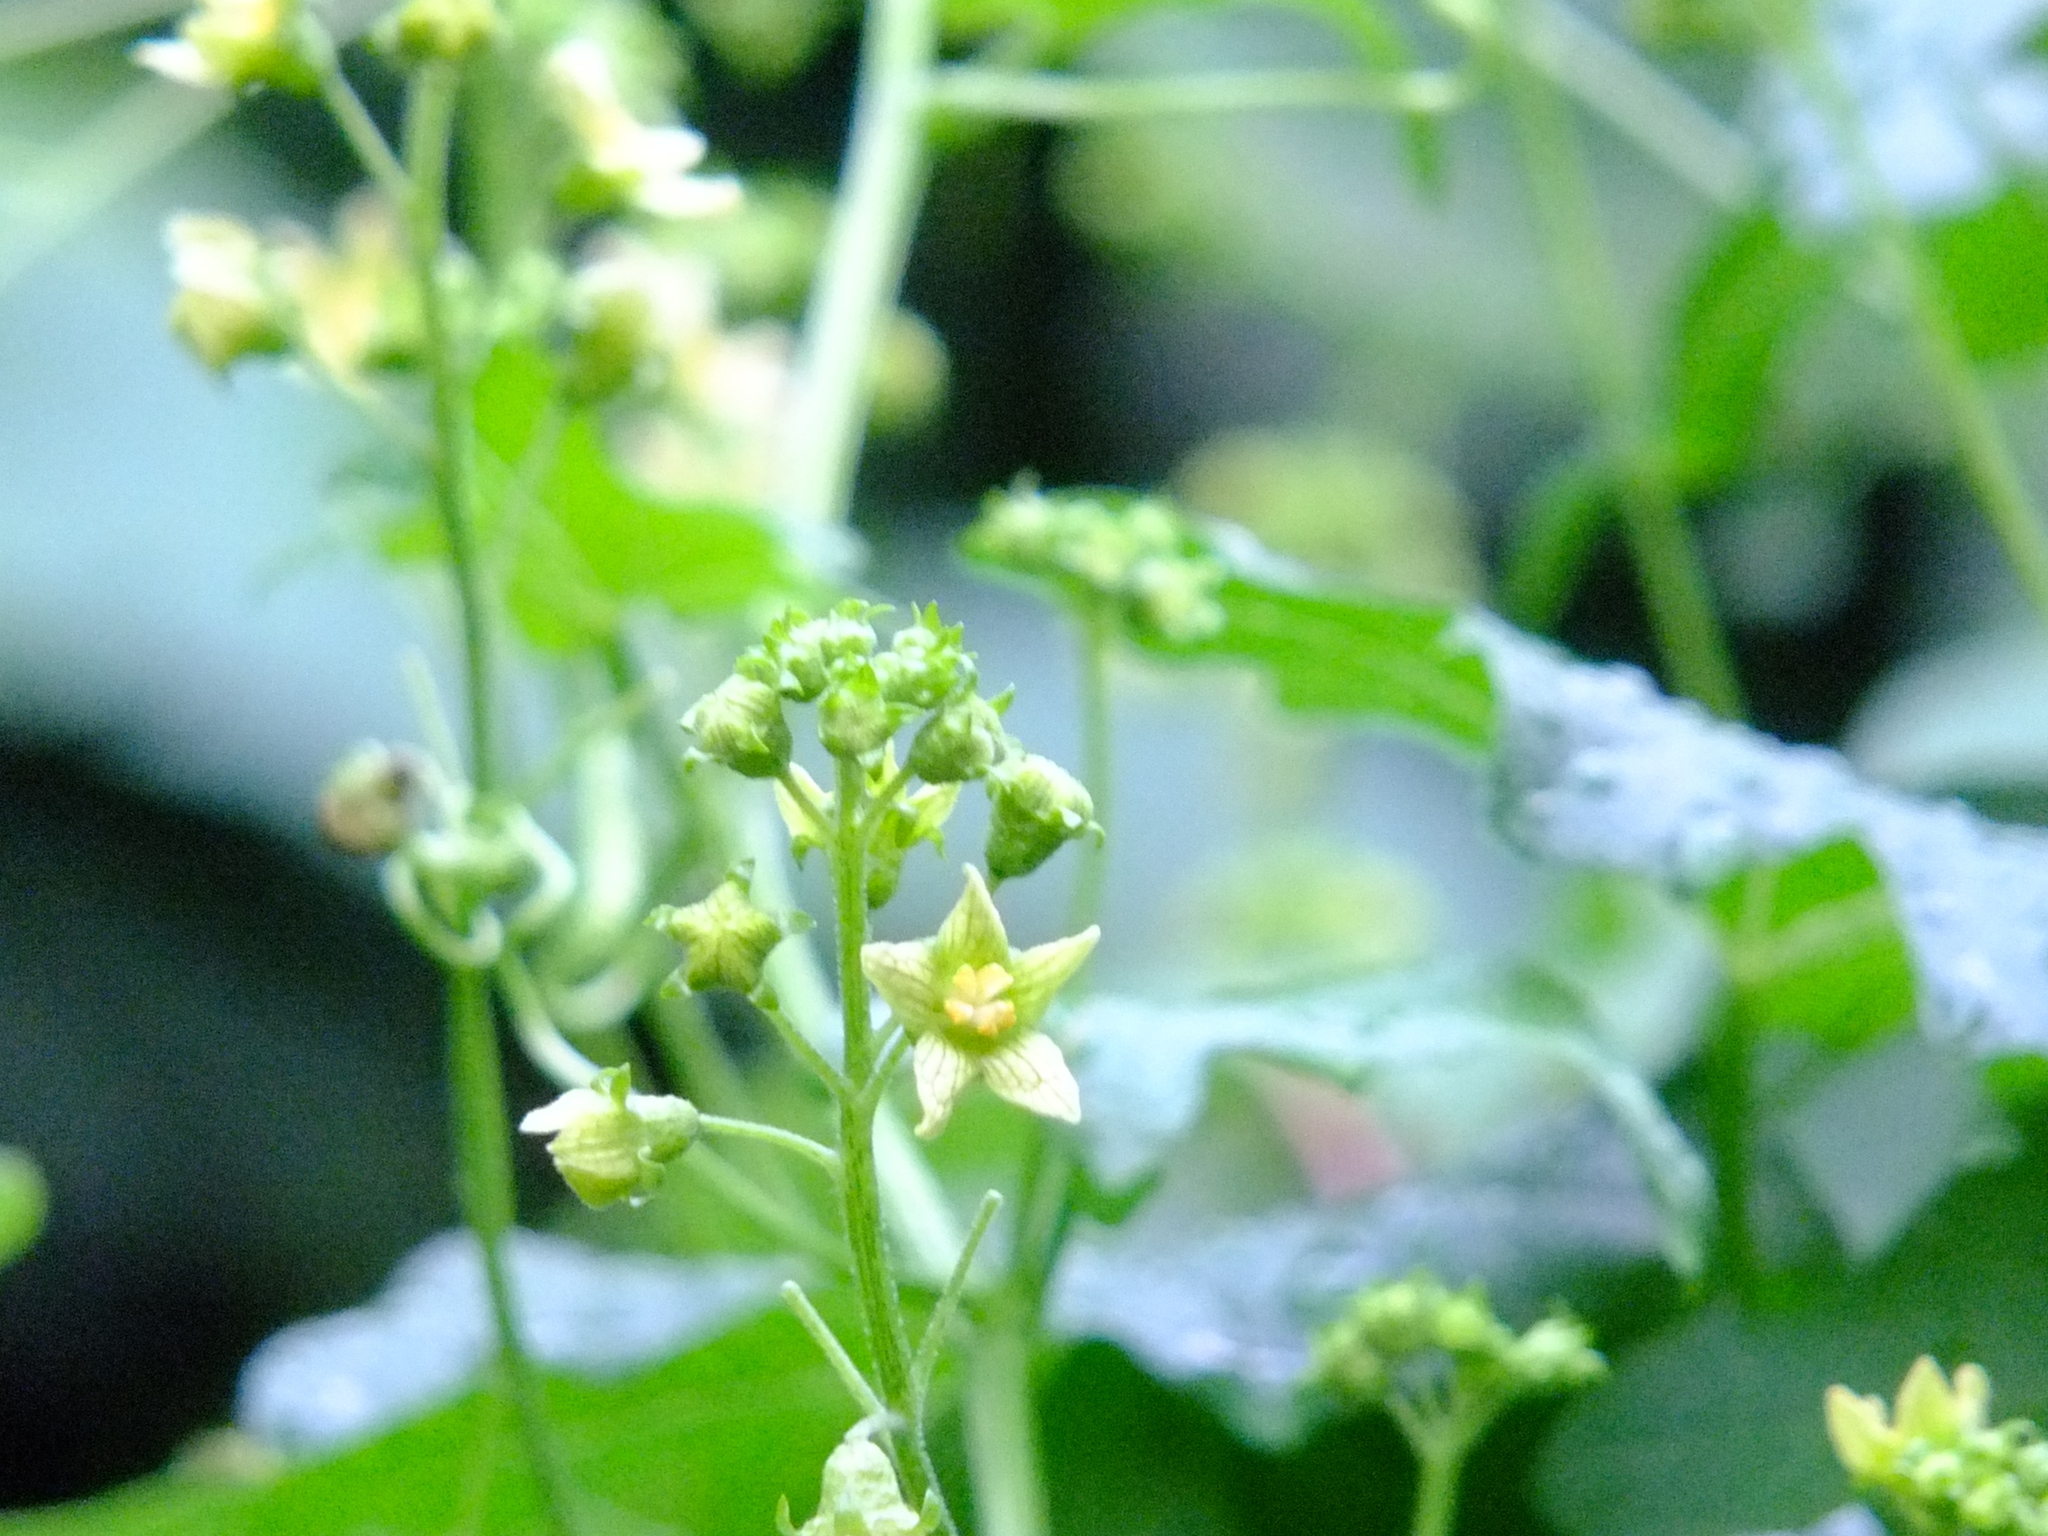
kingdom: Plantae
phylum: Tracheophyta
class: Magnoliopsida
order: Cucurbitales
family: Cucurbitaceae
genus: Bryonia
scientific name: Bryonia alba
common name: White bryony
